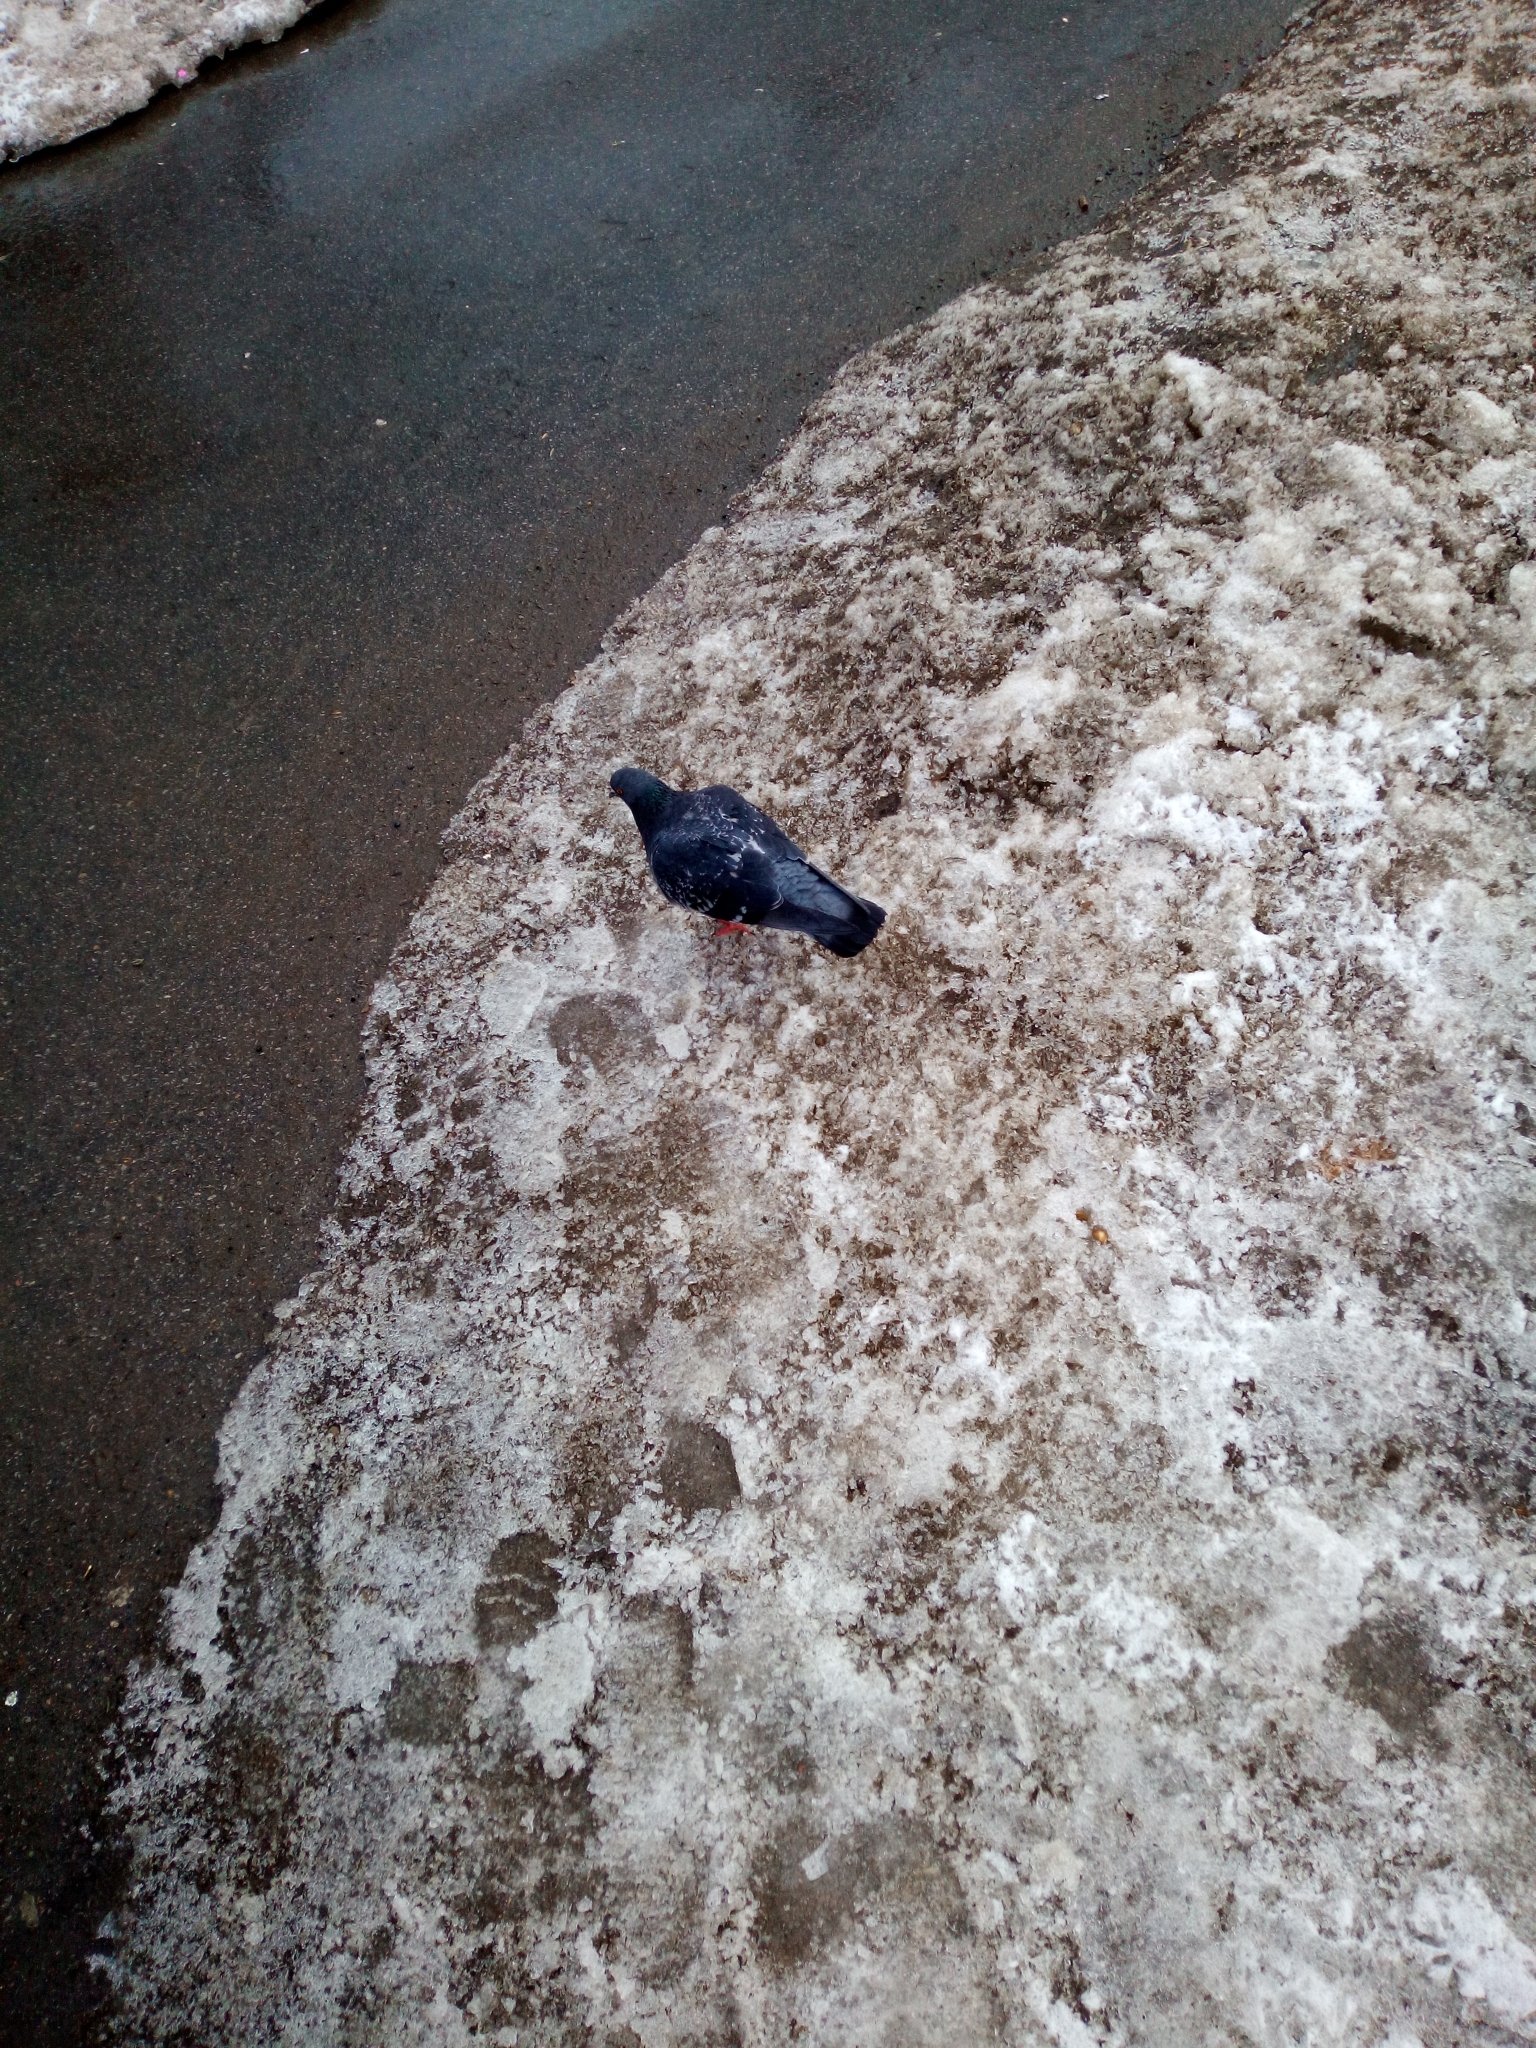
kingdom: Animalia
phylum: Chordata
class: Aves
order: Columbiformes
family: Columbidae
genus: Columba
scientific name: Columba livia
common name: Rock pigeon
